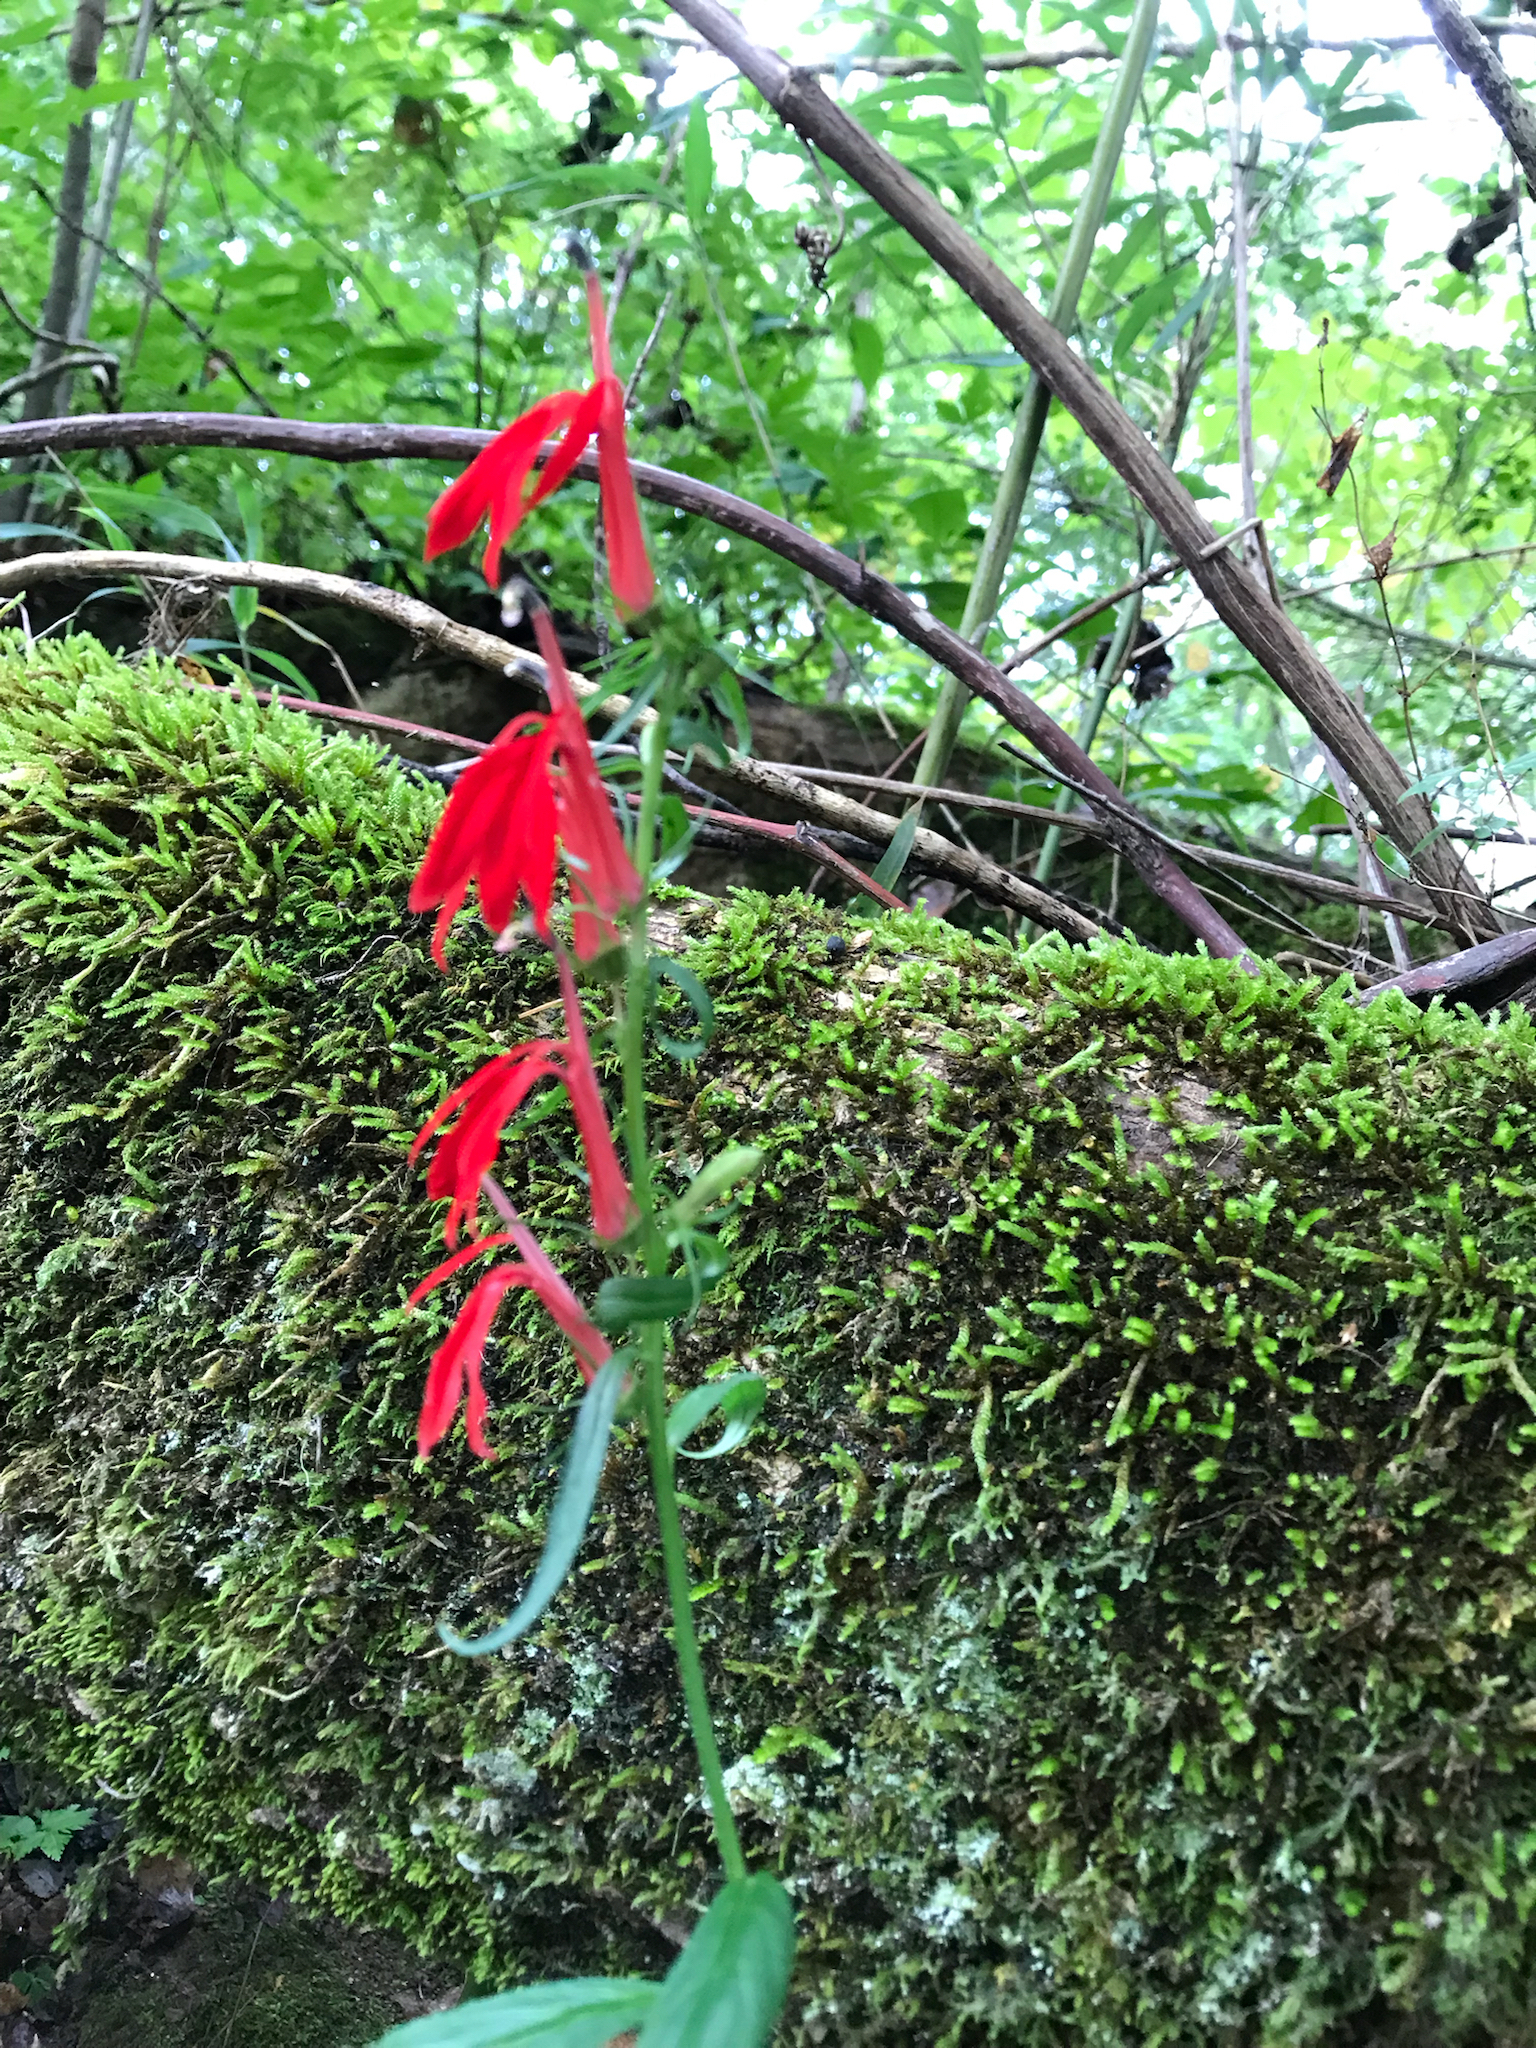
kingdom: Plantae
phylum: Tracheophyta
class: Magnoliopsida
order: Asterales
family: Campanulaceae
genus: Lobelia
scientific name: Lobelia cardinalis
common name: Cardinal flower
